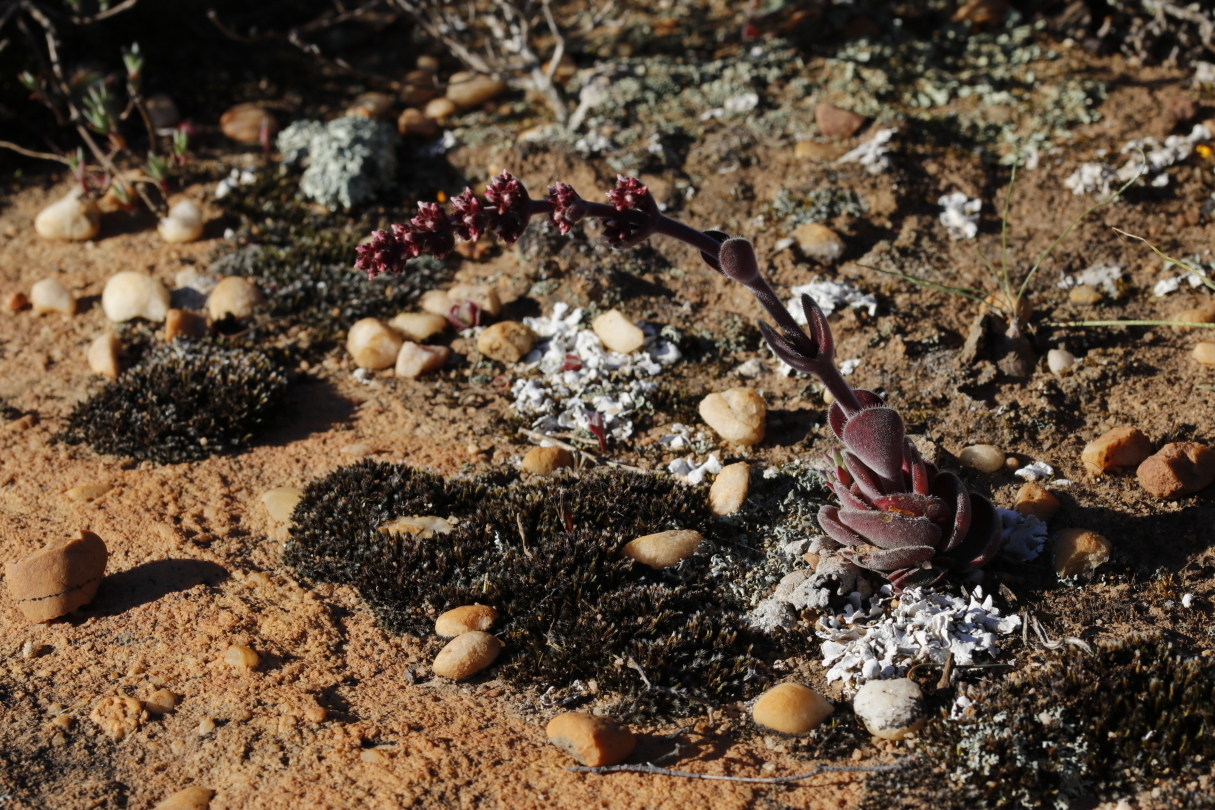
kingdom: Plantae
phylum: Tracheophyta
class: Magnoliopsida
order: Saxifragales
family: Crassulaceae
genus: Crassula
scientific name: Crassula tomentosa
